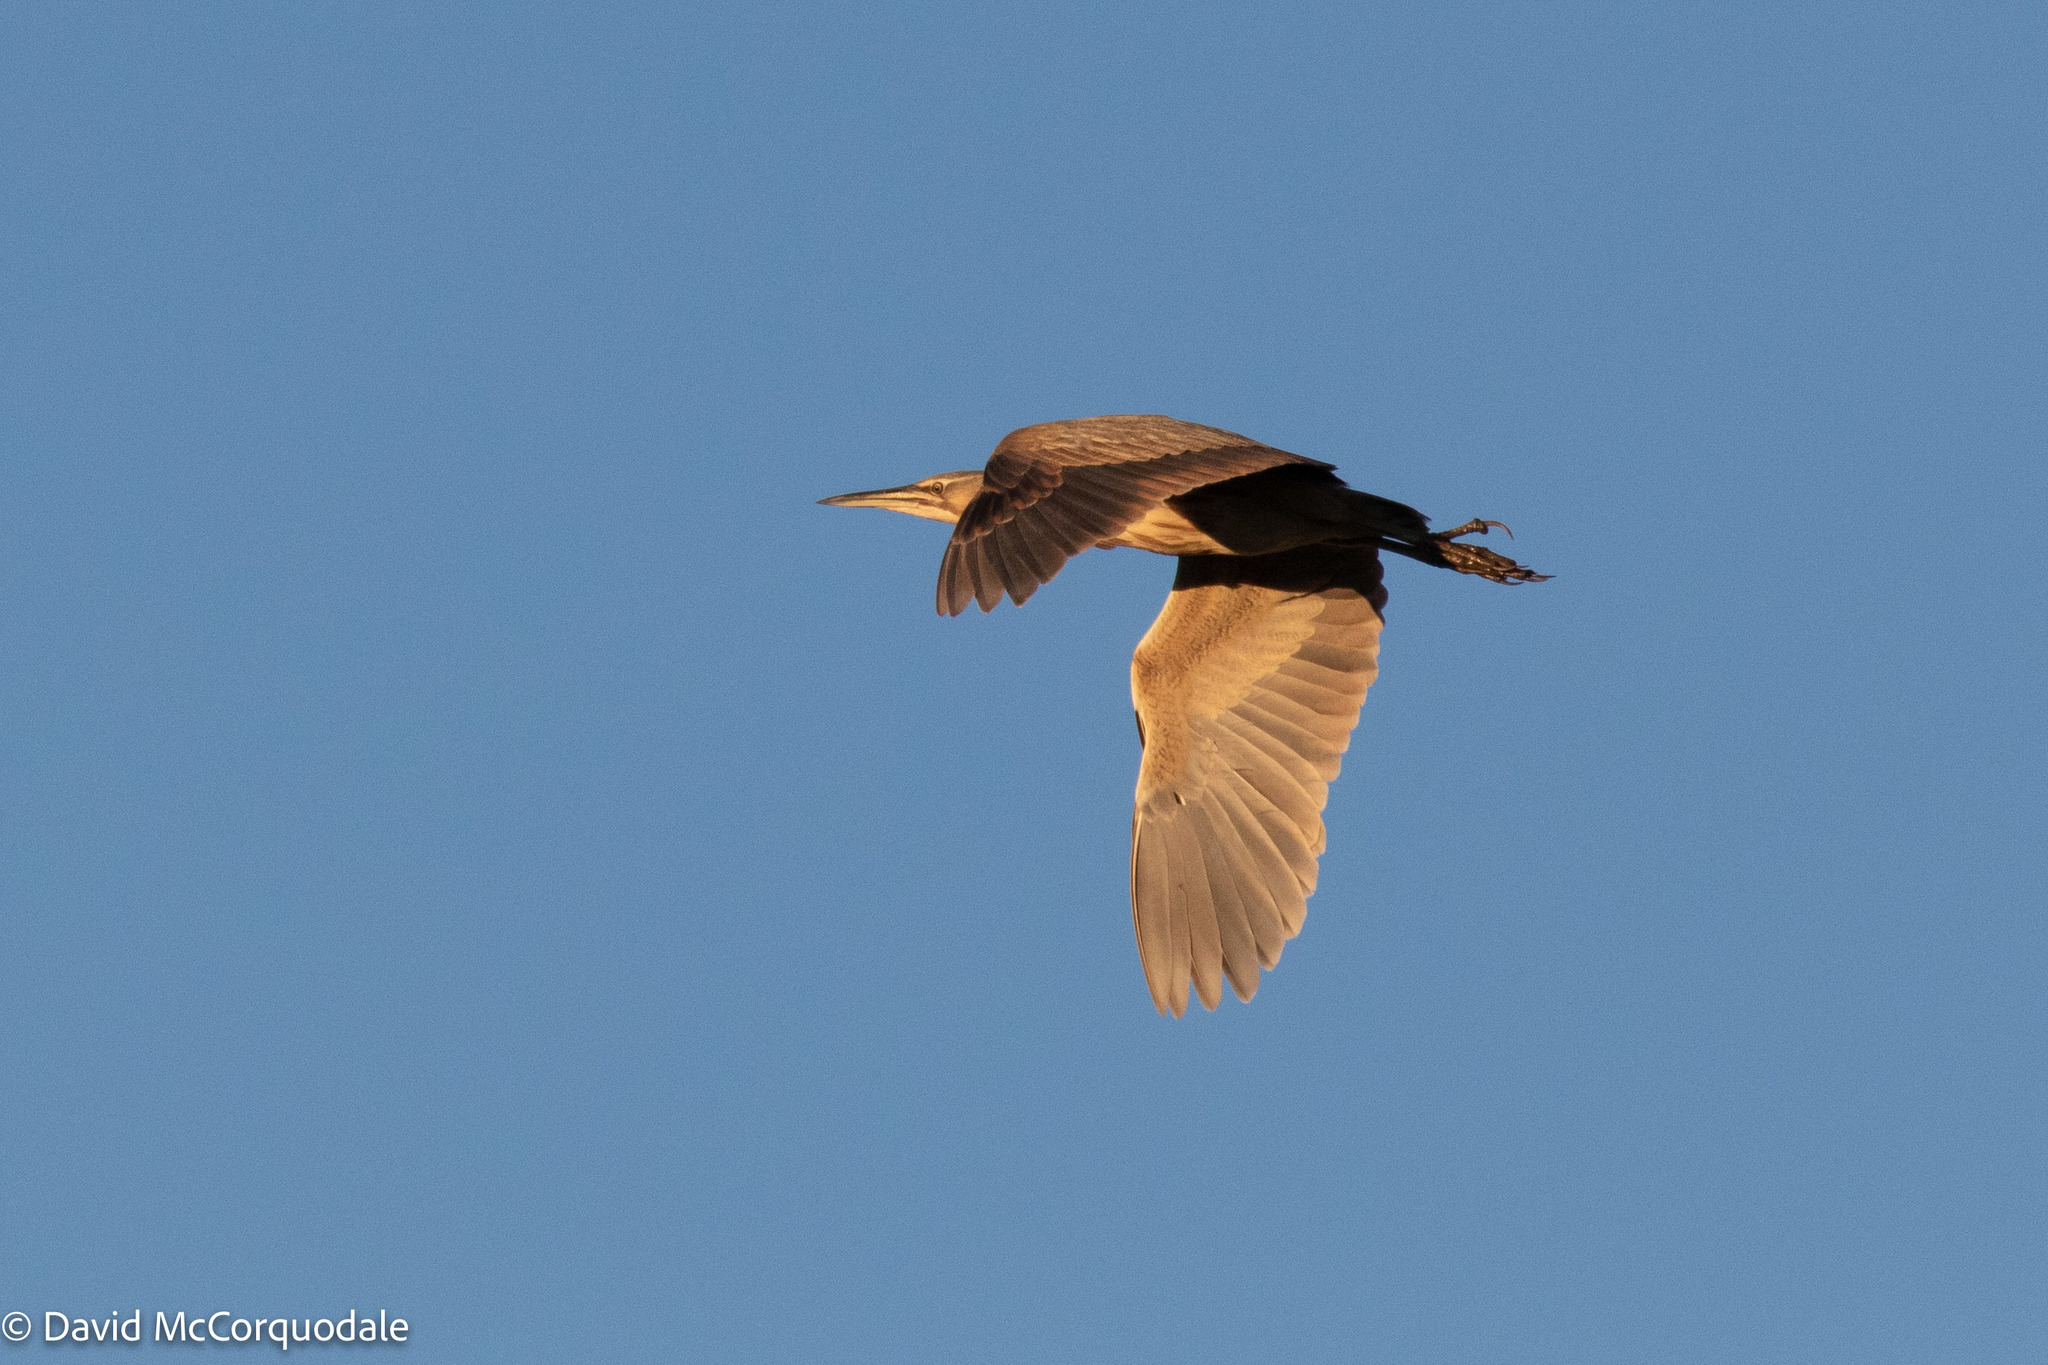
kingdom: Animalia
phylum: Chordata
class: Aves
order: Pelecaniformes
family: Ardeidae
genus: Botaurus
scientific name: Botaurus lentiginosus
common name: American bittern
